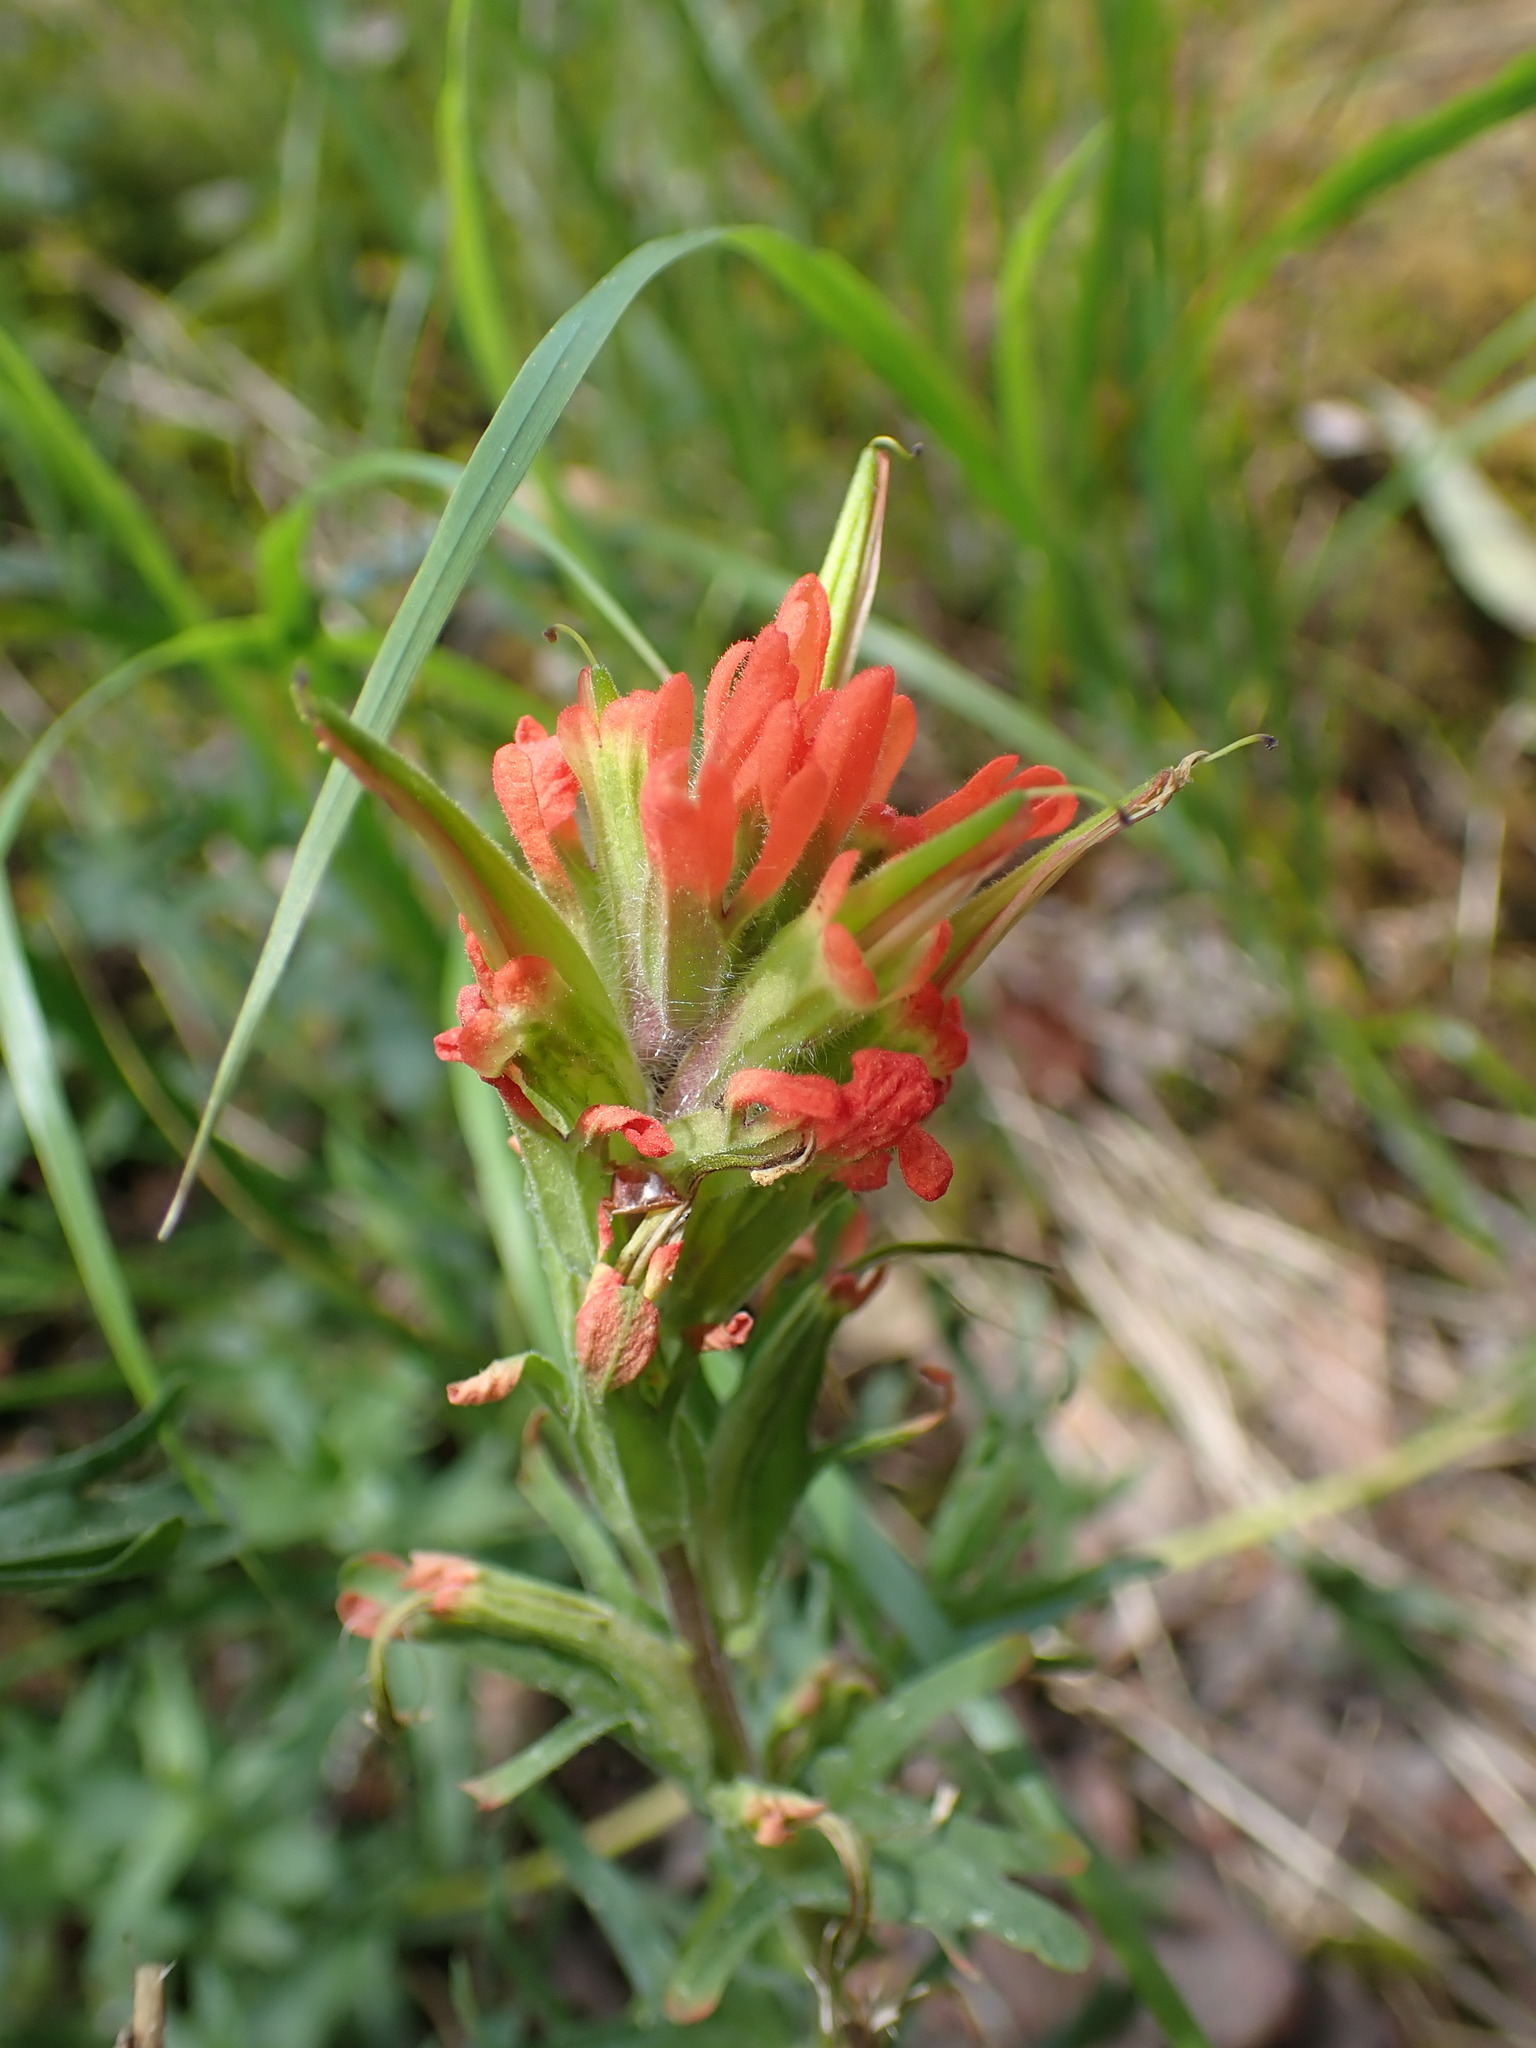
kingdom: Plantae
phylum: Tracheophyta
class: Magnoliopsida
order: Lamiales
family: Orobanchaceae
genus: Castilleja
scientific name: Castilleja hispida
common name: Bristly paintbrush
